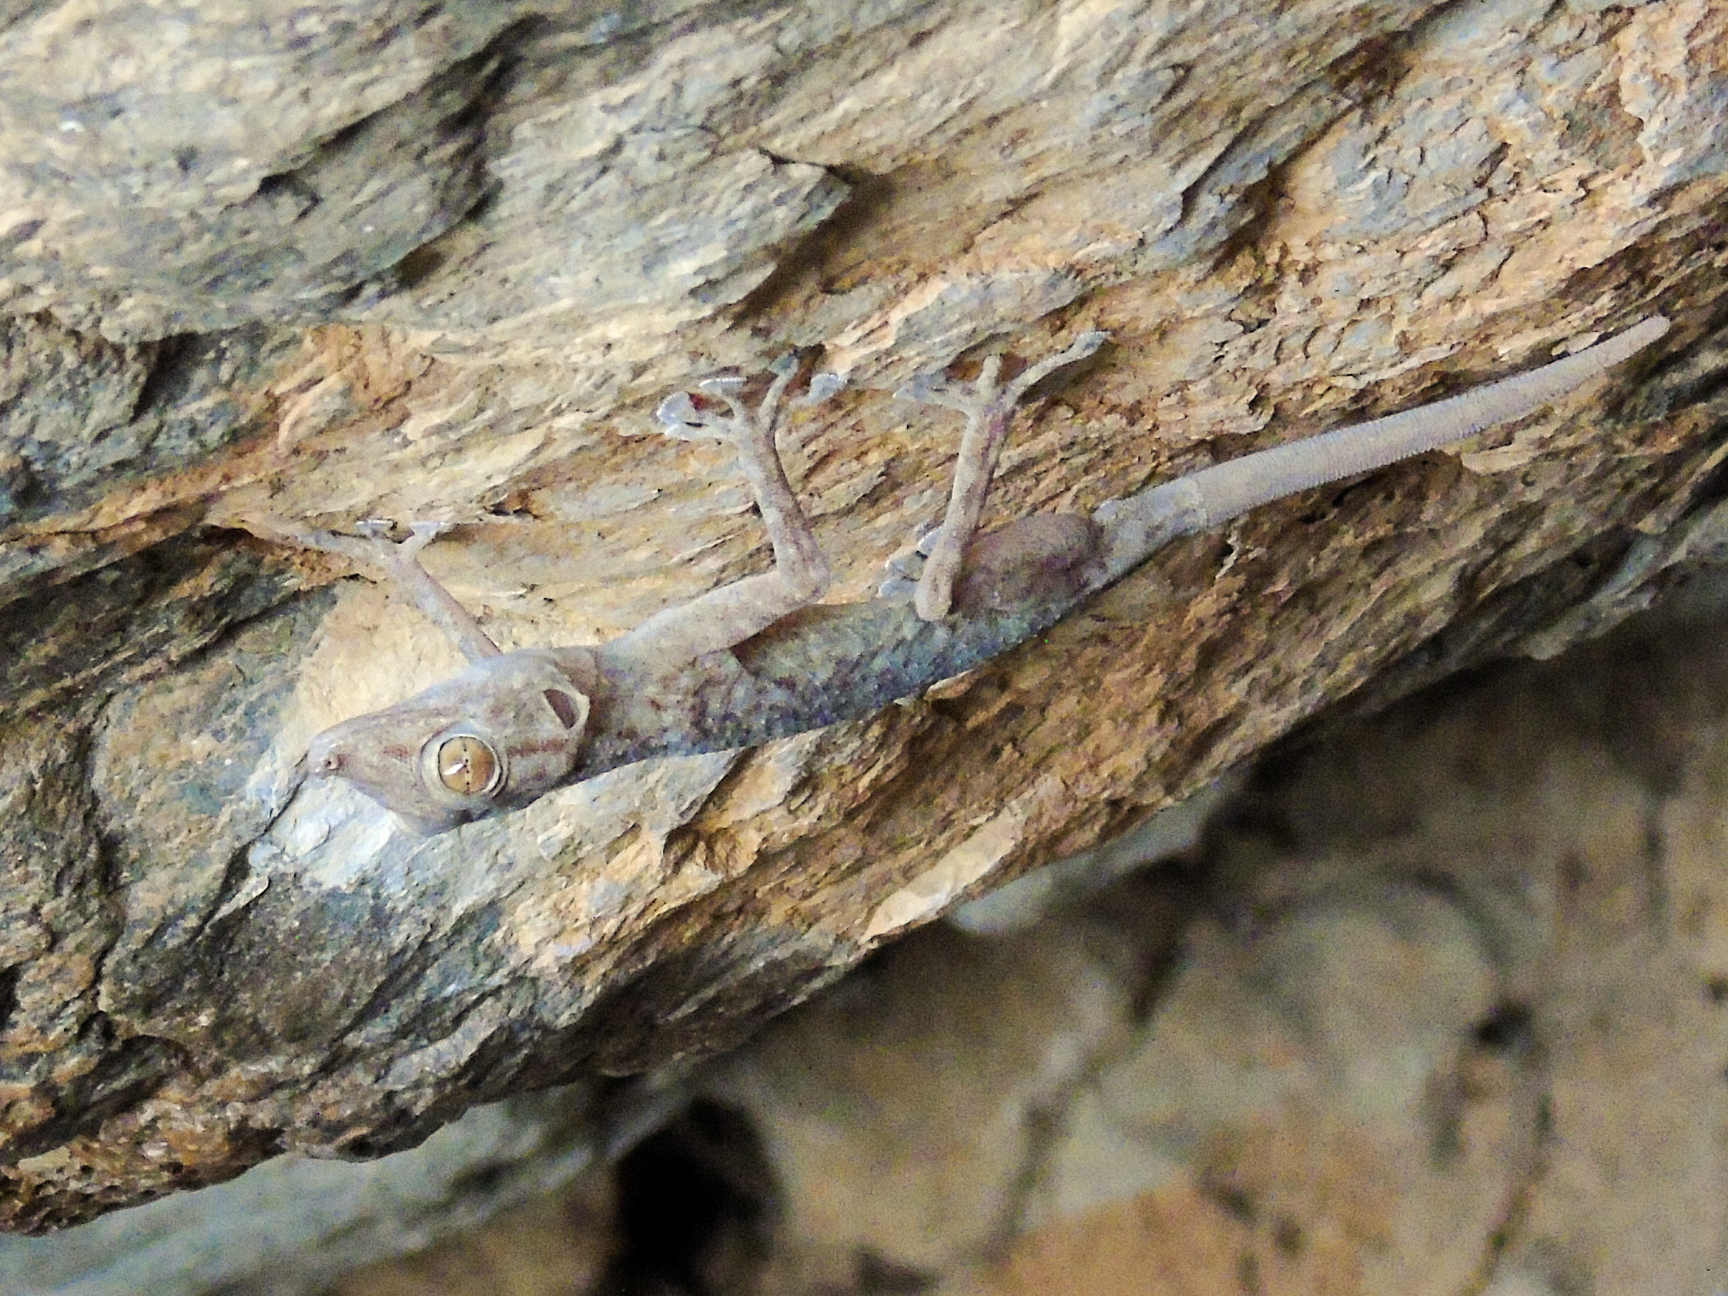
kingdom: Animalia
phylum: Chordata
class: Squamata
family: Phyllodactylidae
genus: Ptyodactylus
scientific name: Ptyodactylus ruusaljibalicus
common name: Ruus al jibal fan-footed gecko
